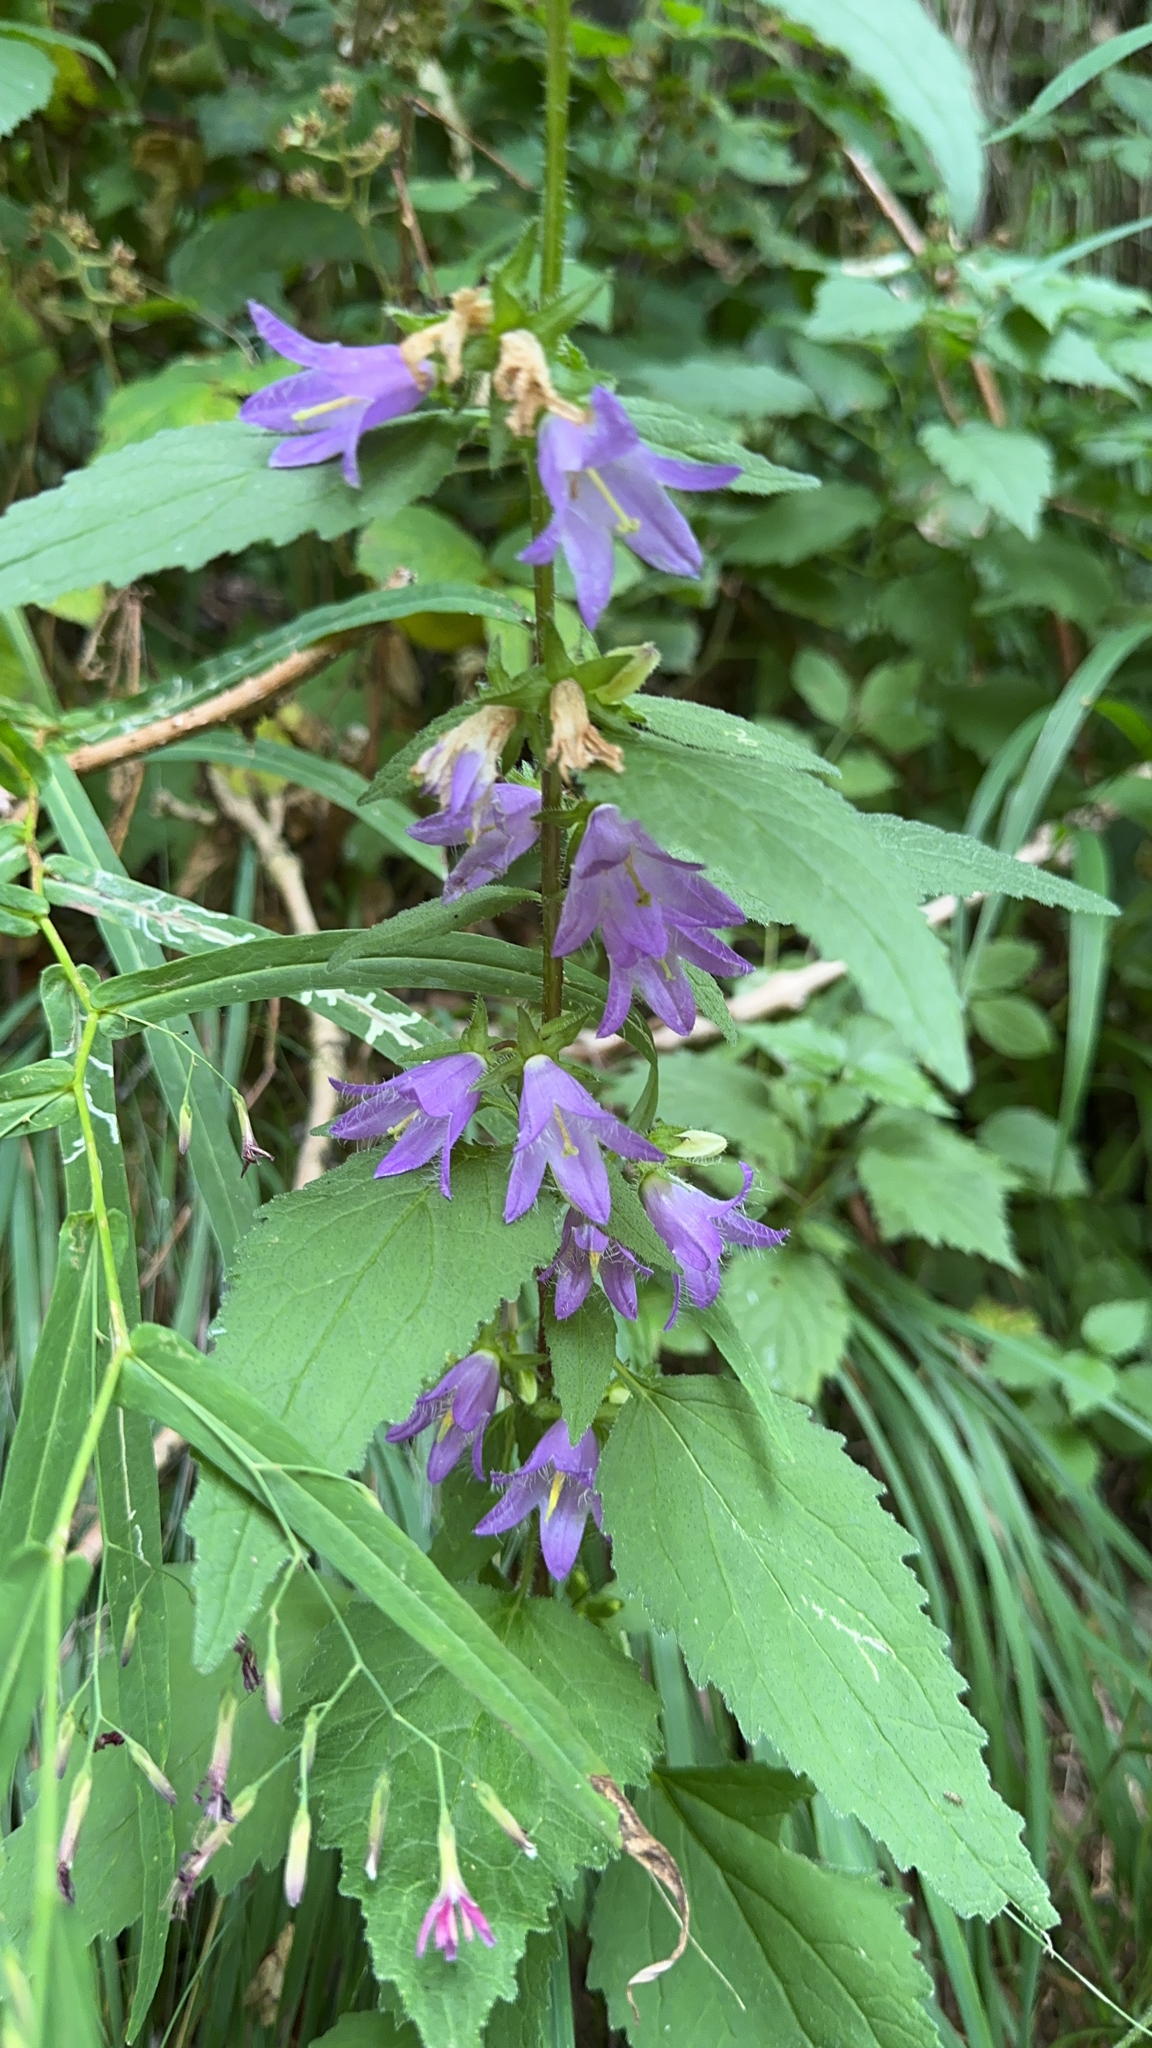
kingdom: Plantae
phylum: Tracheophyta
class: Magnoliopsida
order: Asterales
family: Campanulaceae
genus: Campanula
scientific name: Campanula trachelium
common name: Nettle-leaved bellflower
